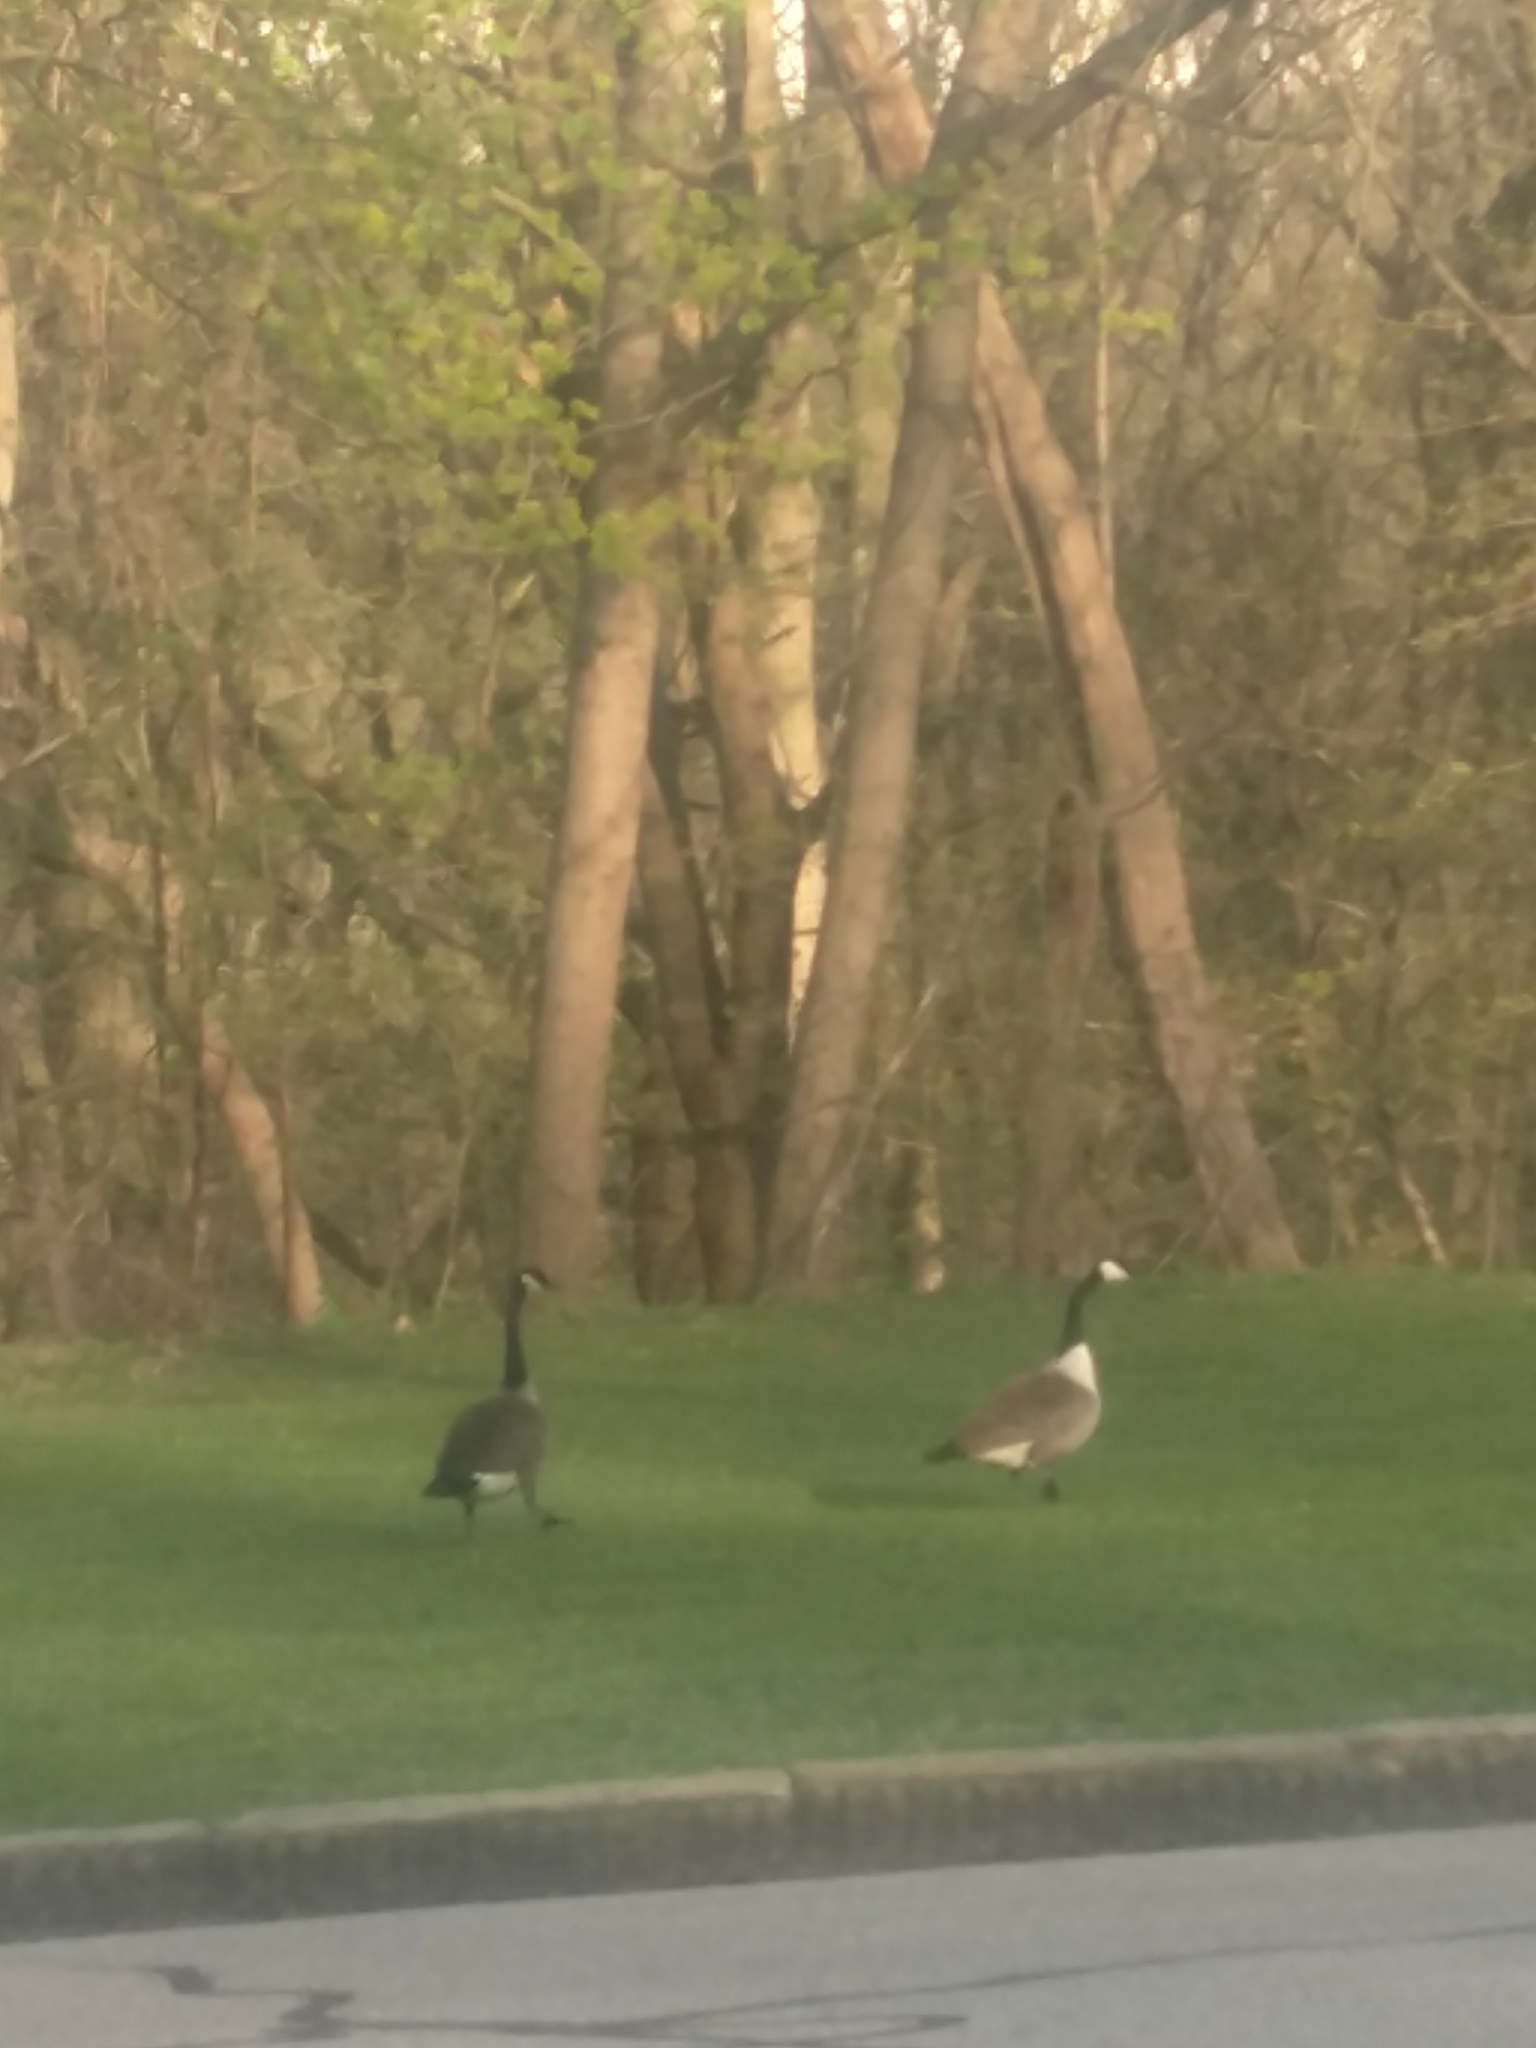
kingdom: Animalia
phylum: Chordata
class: Aves
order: Anseriformes
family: Anatidae
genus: Branta
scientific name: Branta canadensis
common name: Canada goose
